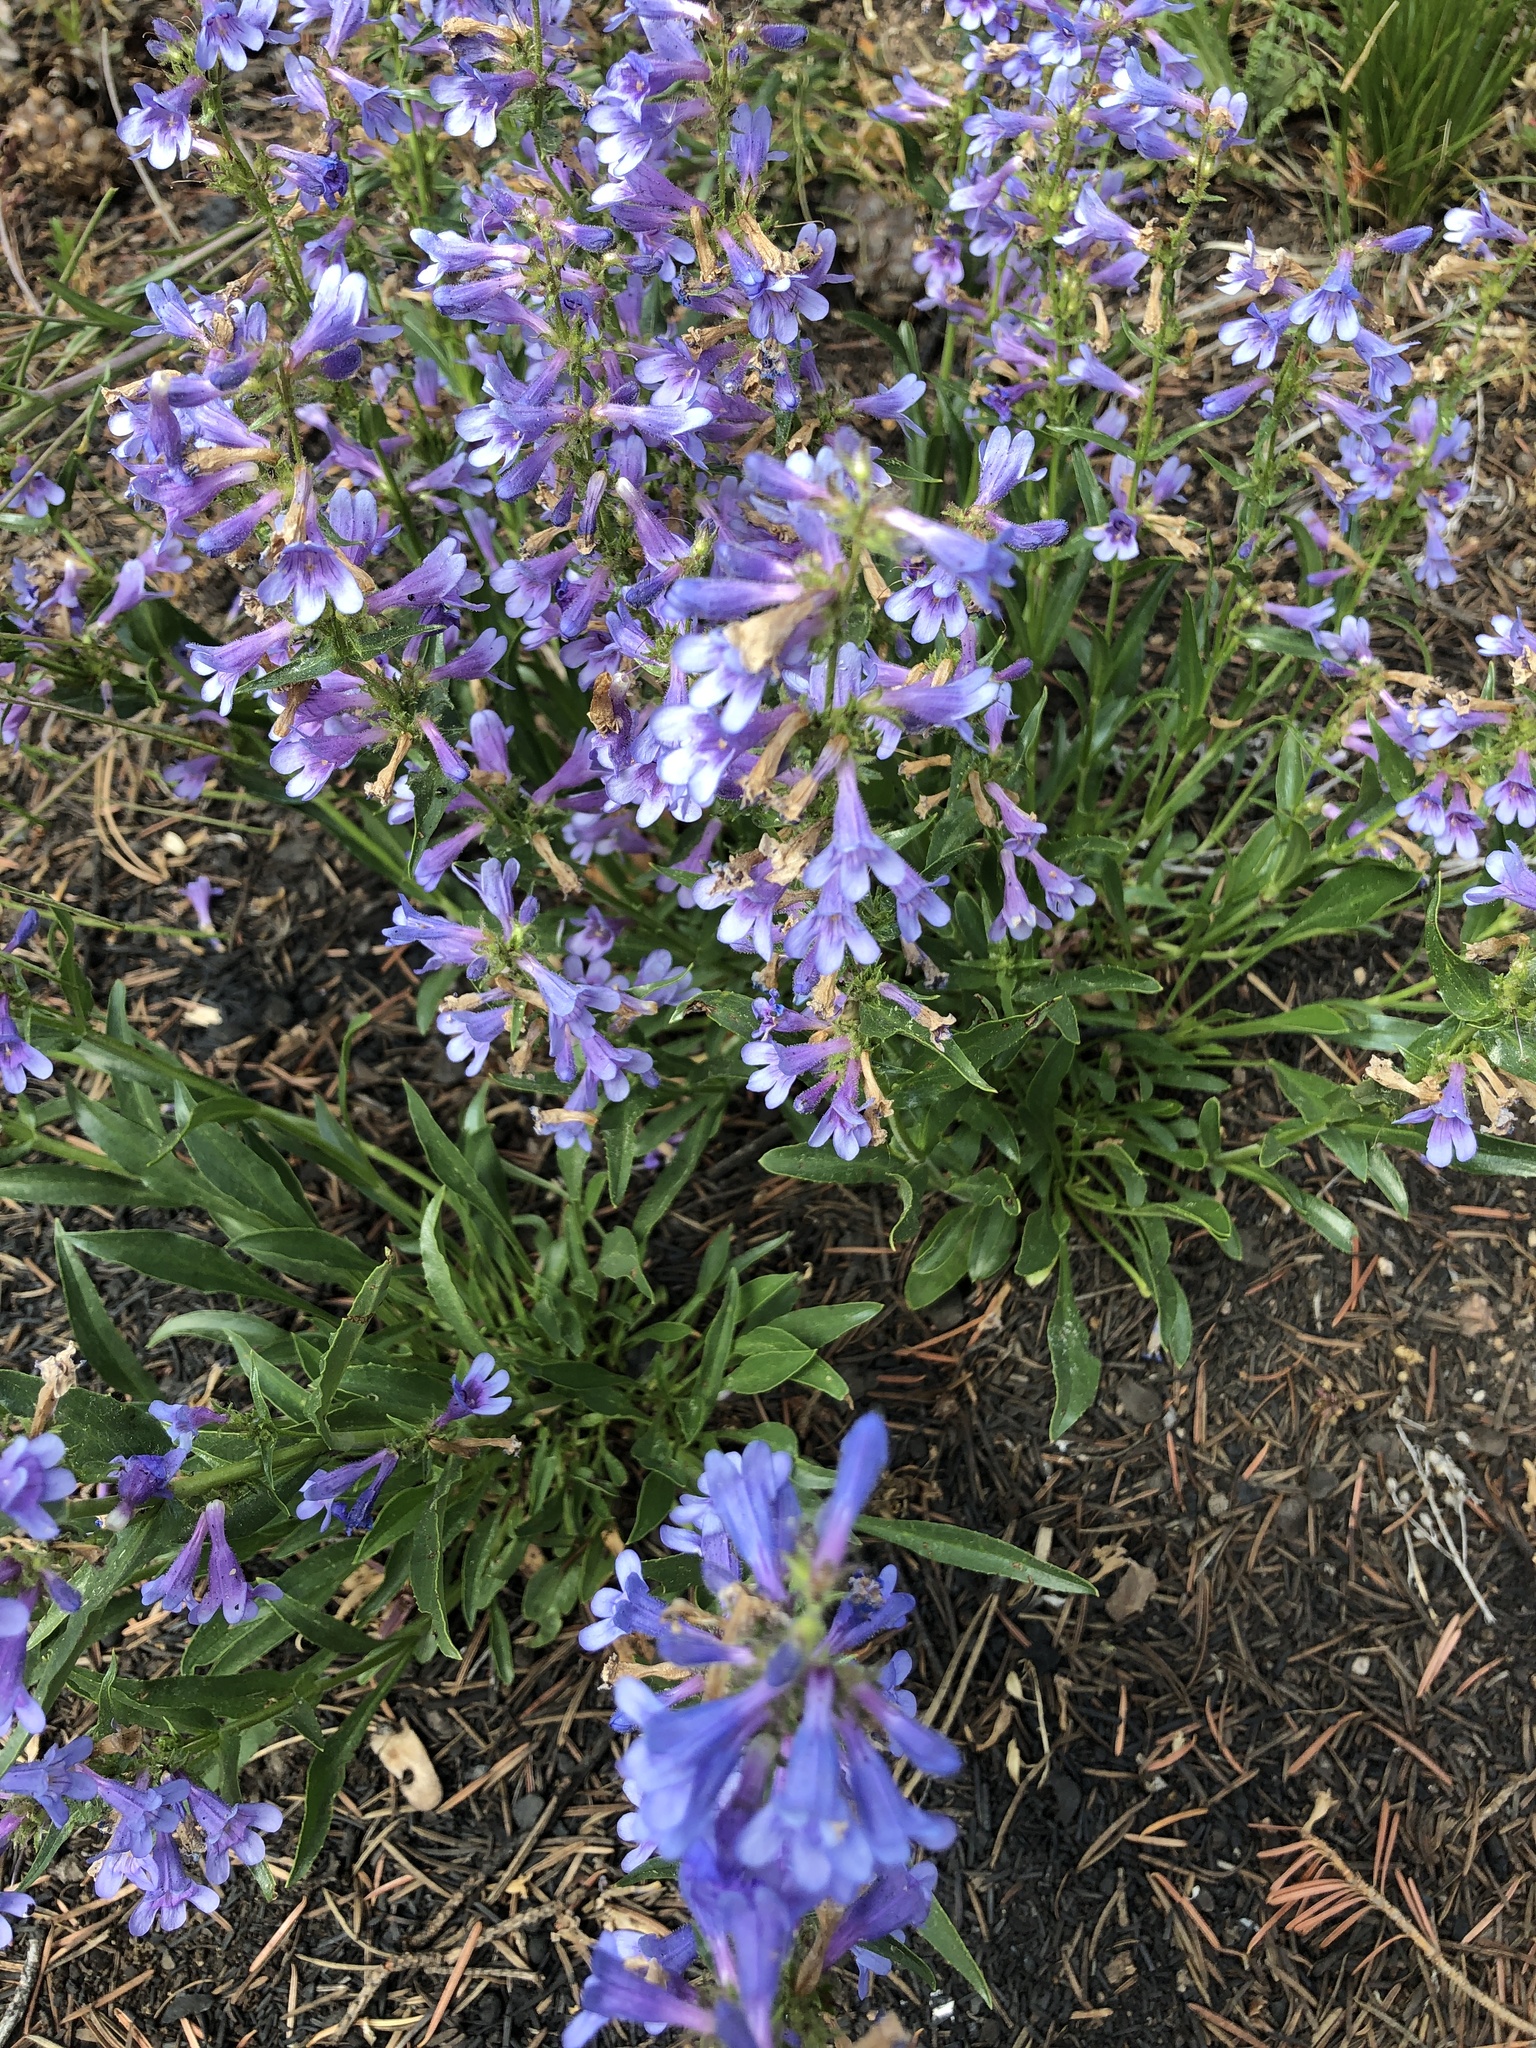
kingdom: Plantae
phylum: Tracheophyta
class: Magnoliopsida
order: Lamiales
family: Plantaginaceae
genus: Penstemon
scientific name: Penstemon virens
